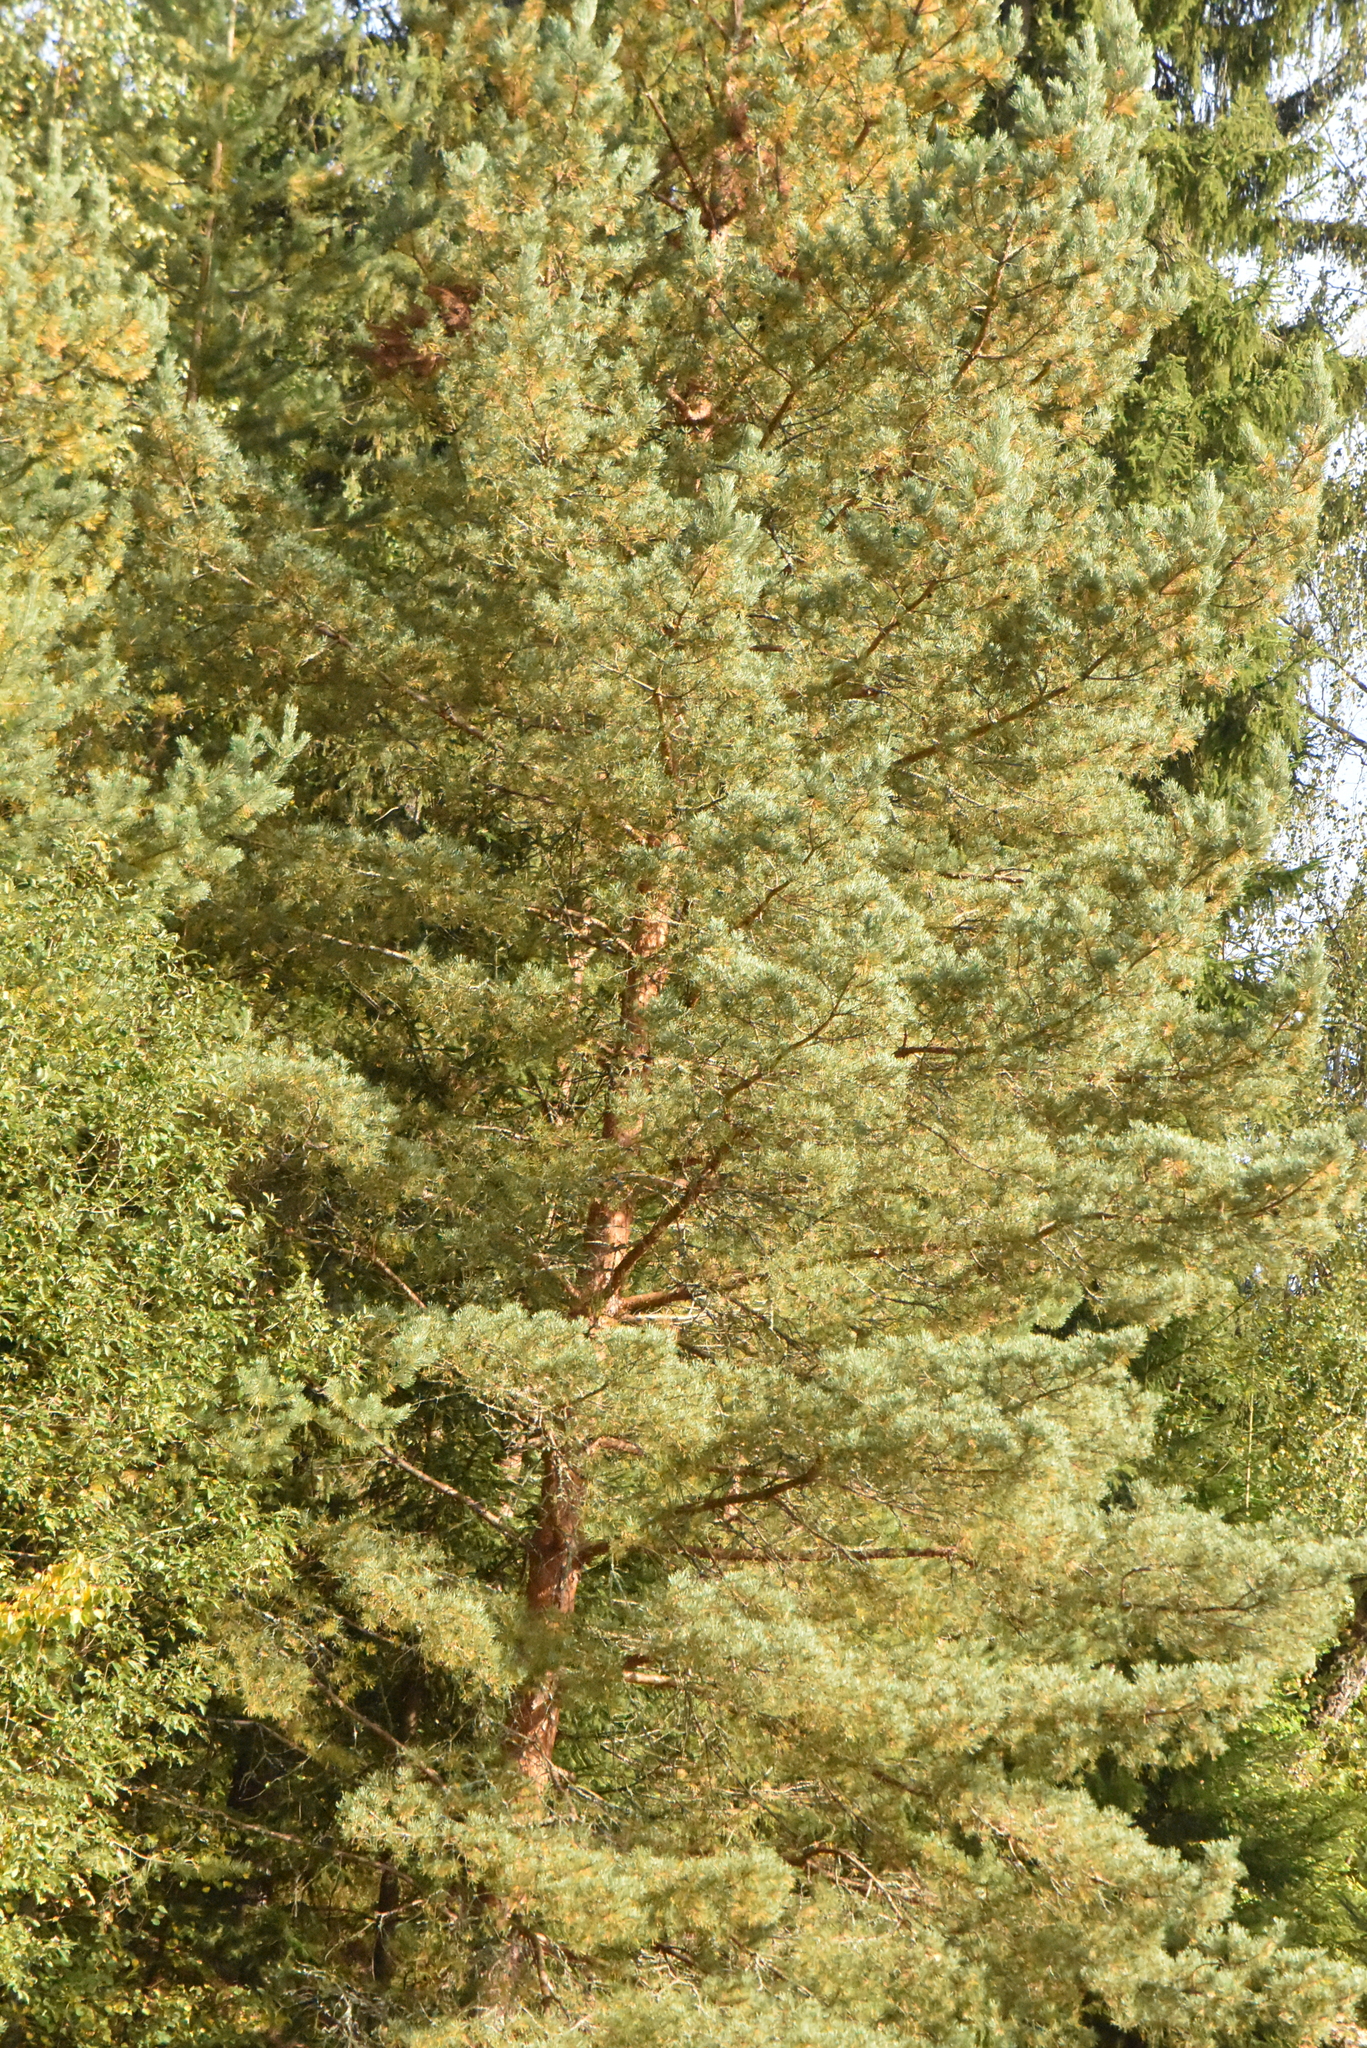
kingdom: Plantae
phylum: Tracheophyta
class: Pinopsida
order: Pinales
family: Pinaceae
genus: Pinus
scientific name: Pinus sylvestris
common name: Scots pine
